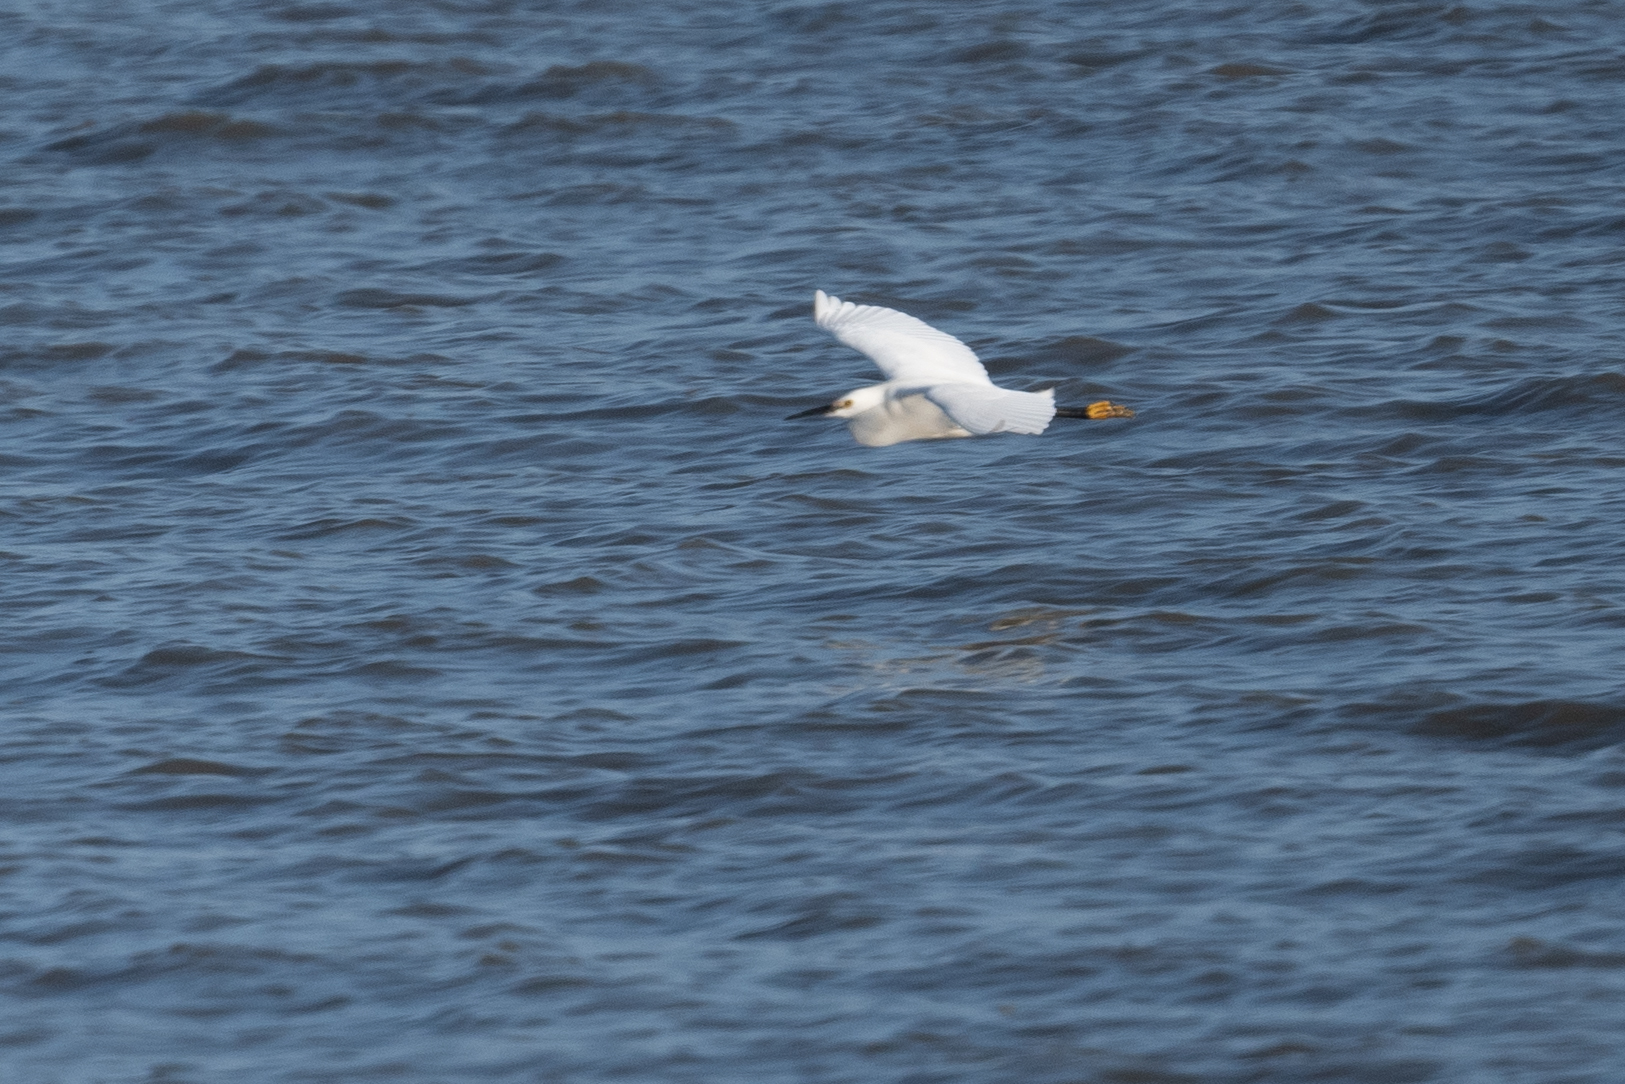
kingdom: Animalia
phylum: Chordata
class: Aves
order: Pelecaniformes
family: Ardeidae
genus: Egretta
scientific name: Egretta thula
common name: Snowy egret
